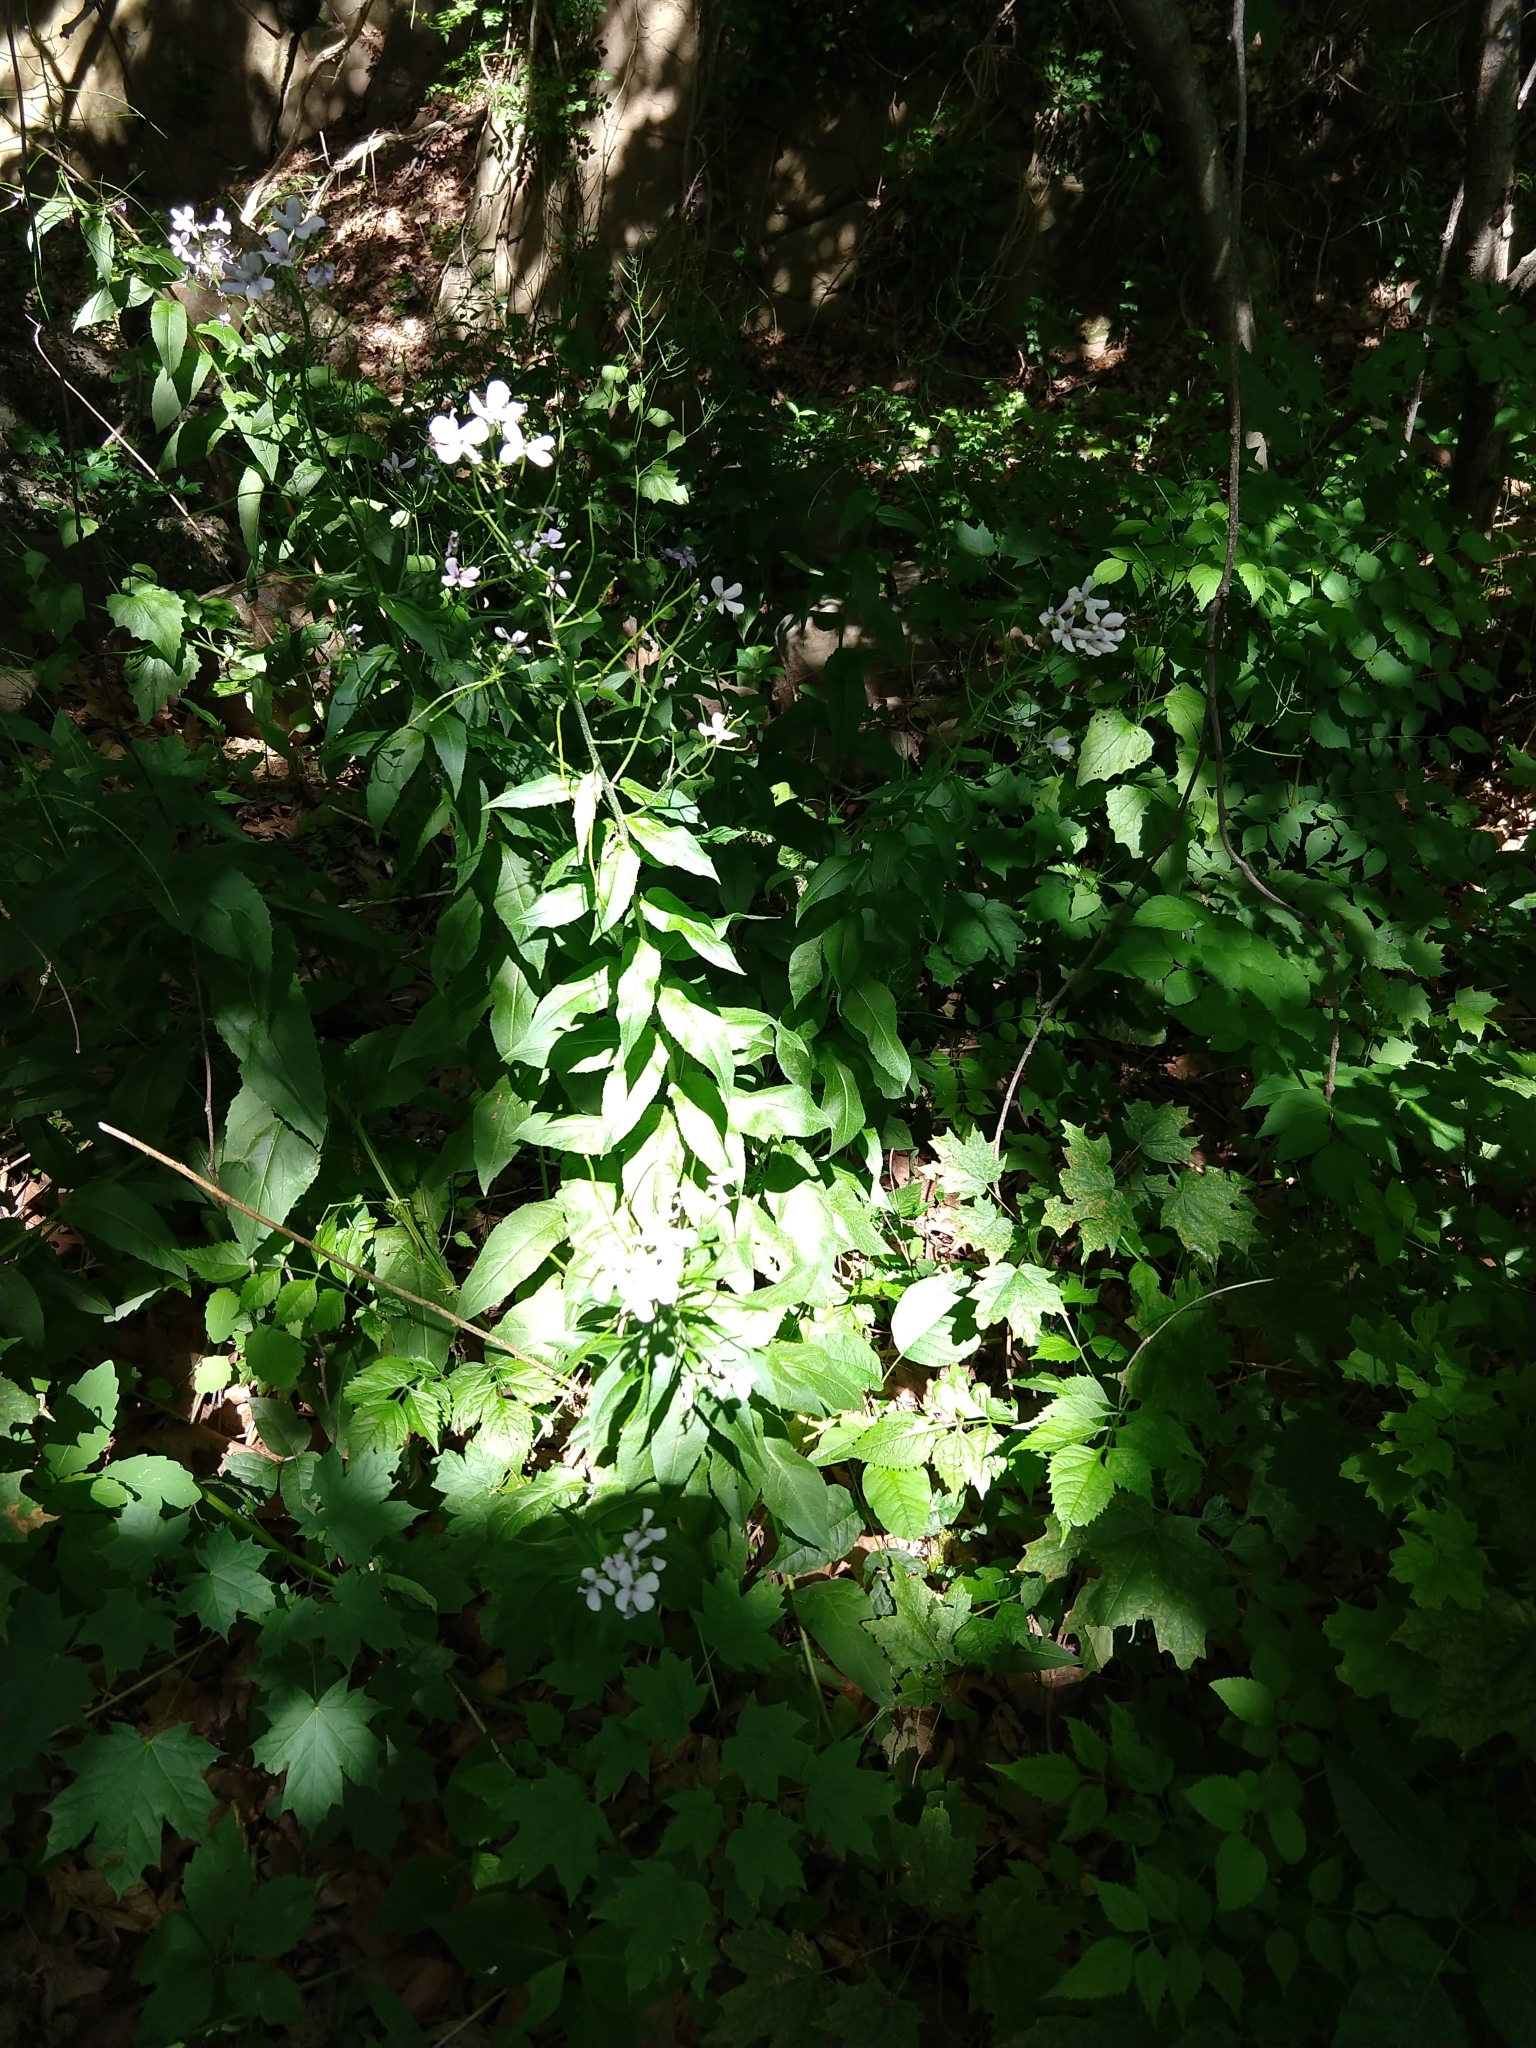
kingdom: Plantae
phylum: Tracheophyta
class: Magnoliopsida
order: Brassicales
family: Brassicaceae
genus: Hesperis
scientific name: Hesperis matronalis
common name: Dame's-violet
